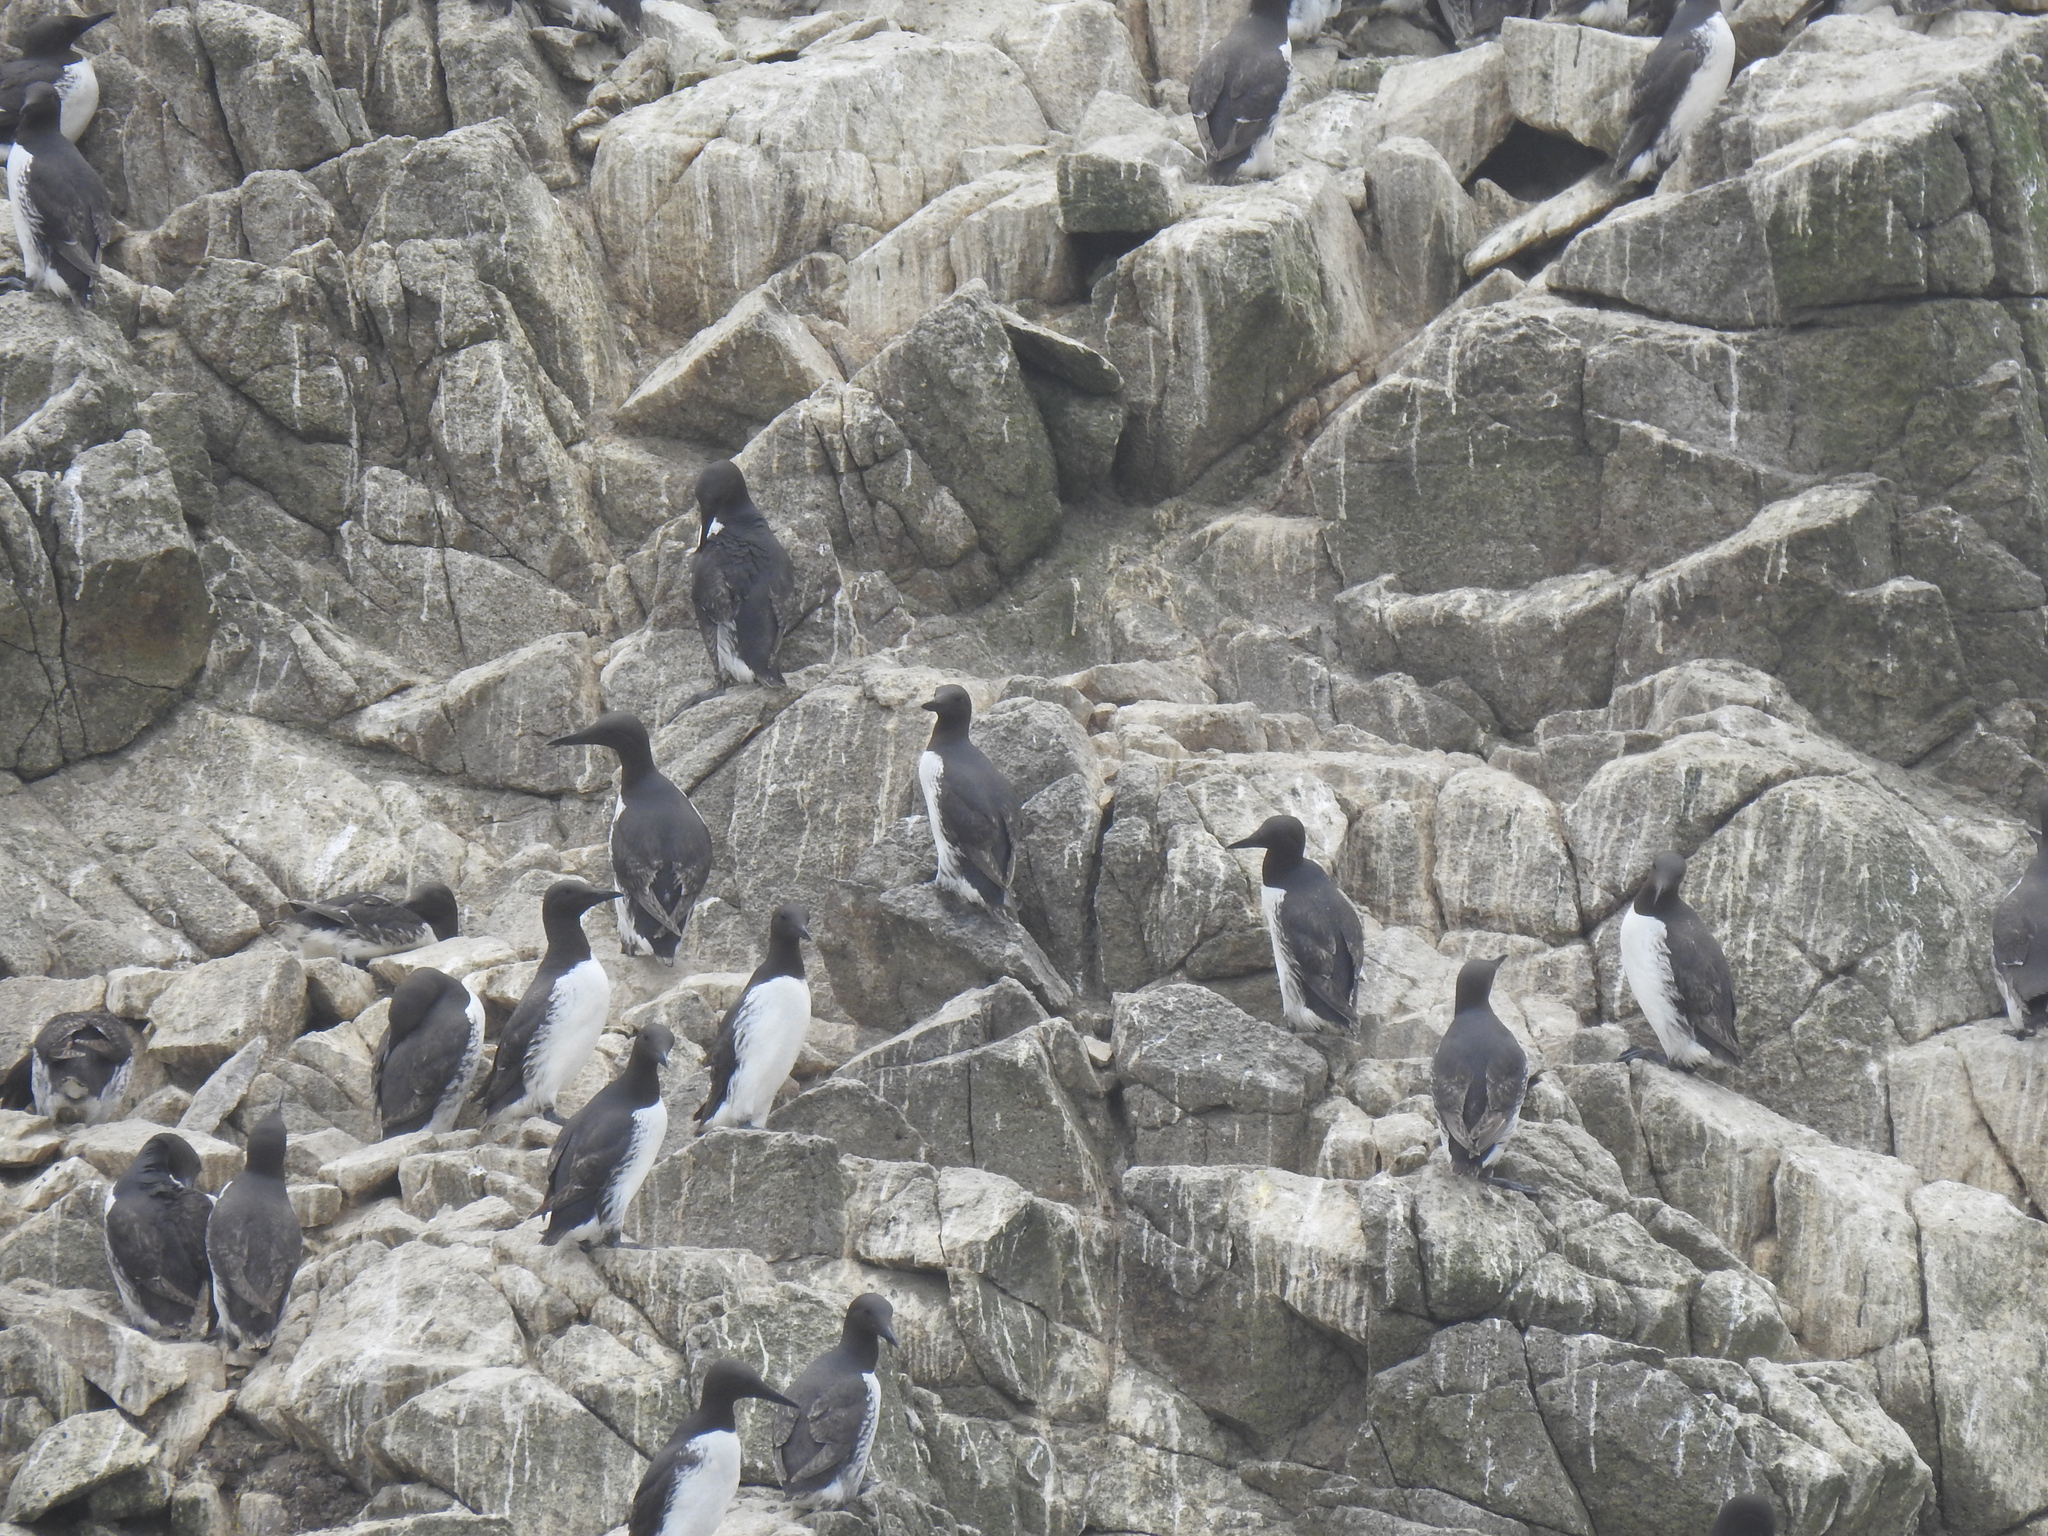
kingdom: Animalia
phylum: Chordata
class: Aves
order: Charadriiformes
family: Alcidae
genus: Uria
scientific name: Uria aalge
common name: Common murre
